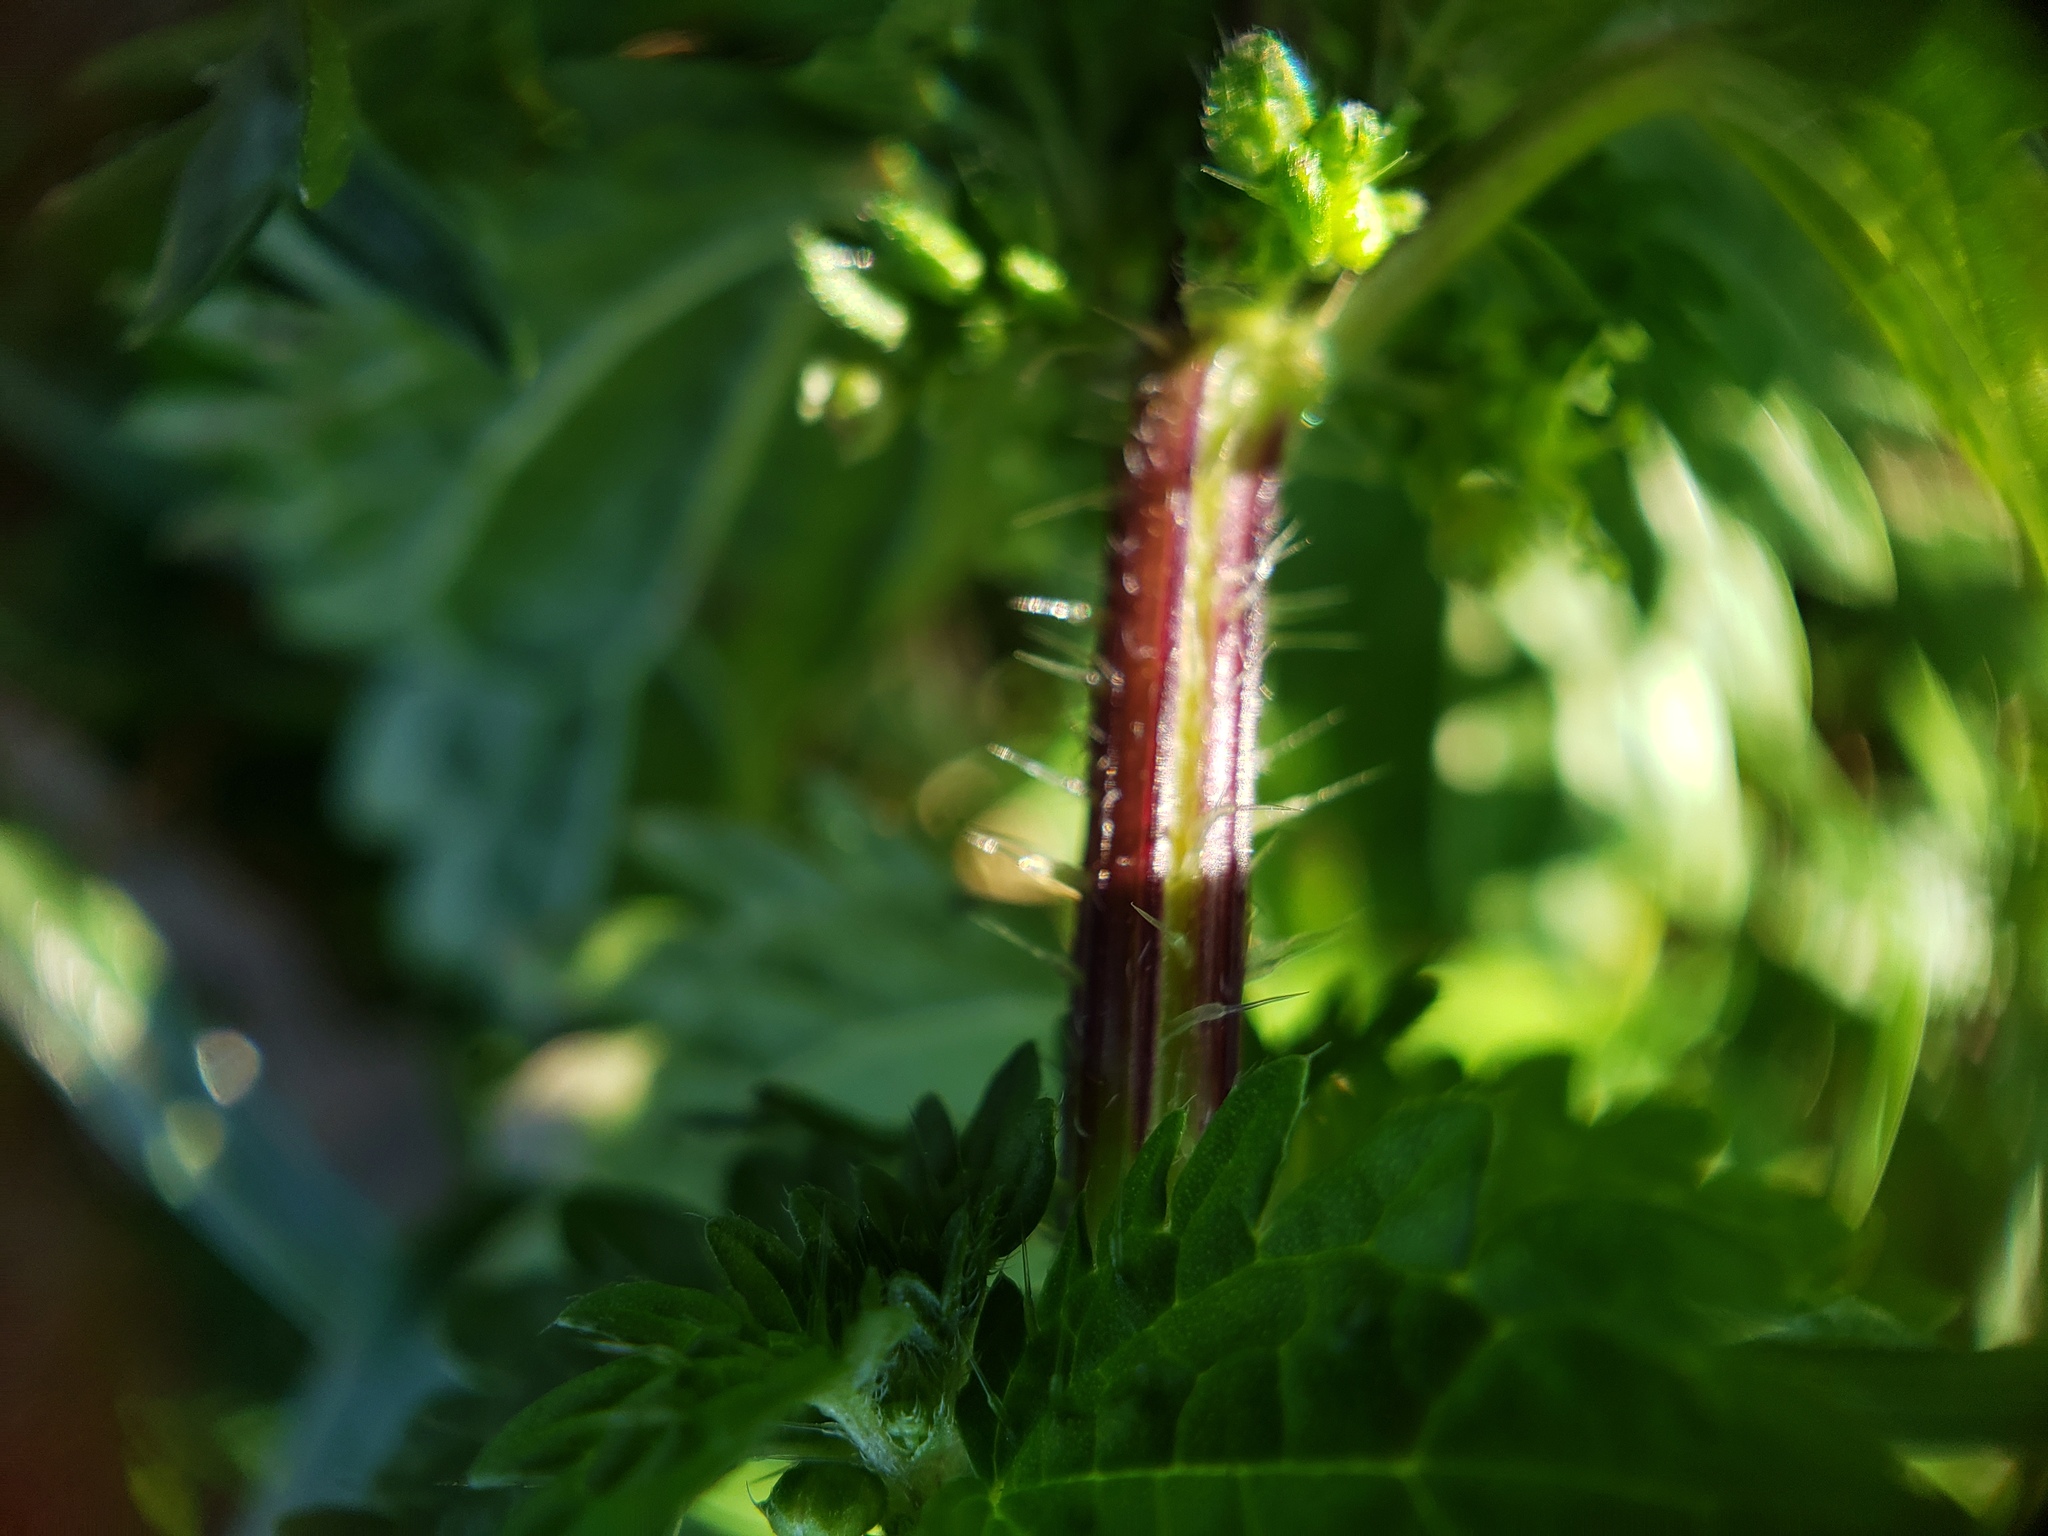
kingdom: Plantae
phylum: Tracheophyta
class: Magnoliopsida
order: Rosales
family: Urticaceae
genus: Urtica
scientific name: Urtica dioica
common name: Common nettle
